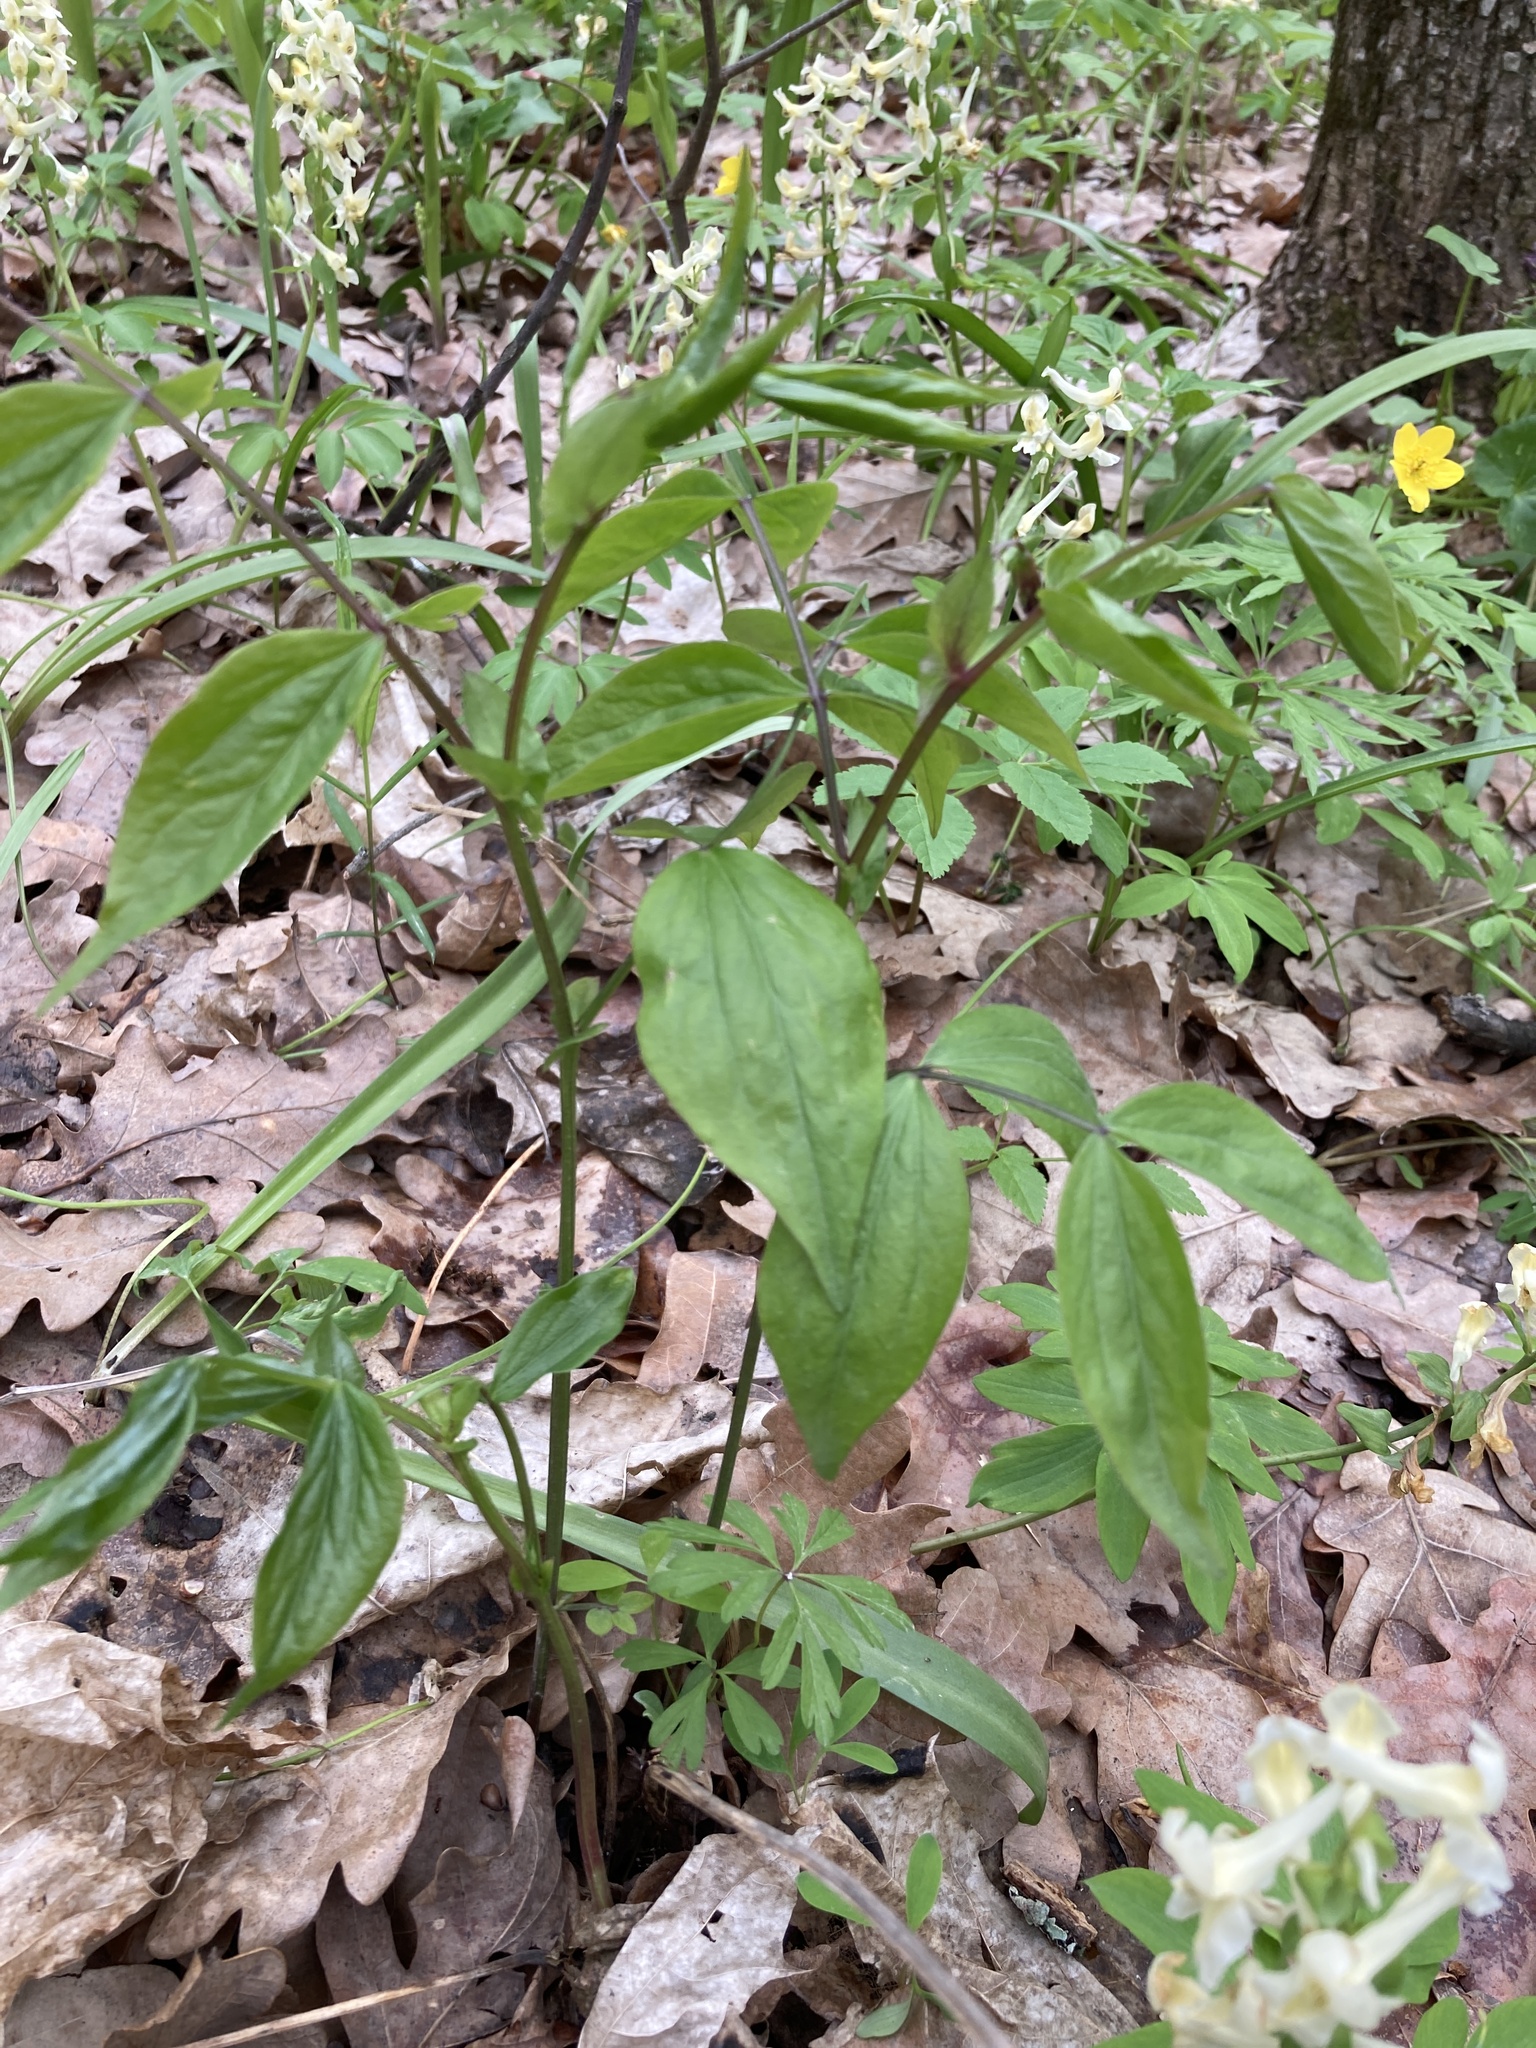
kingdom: Plantae
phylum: Tracheophyta
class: Magnoliopsida
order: Fabales
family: Fabaceae
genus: Lathyrus
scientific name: Lathyrus vernus
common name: Spring pea
